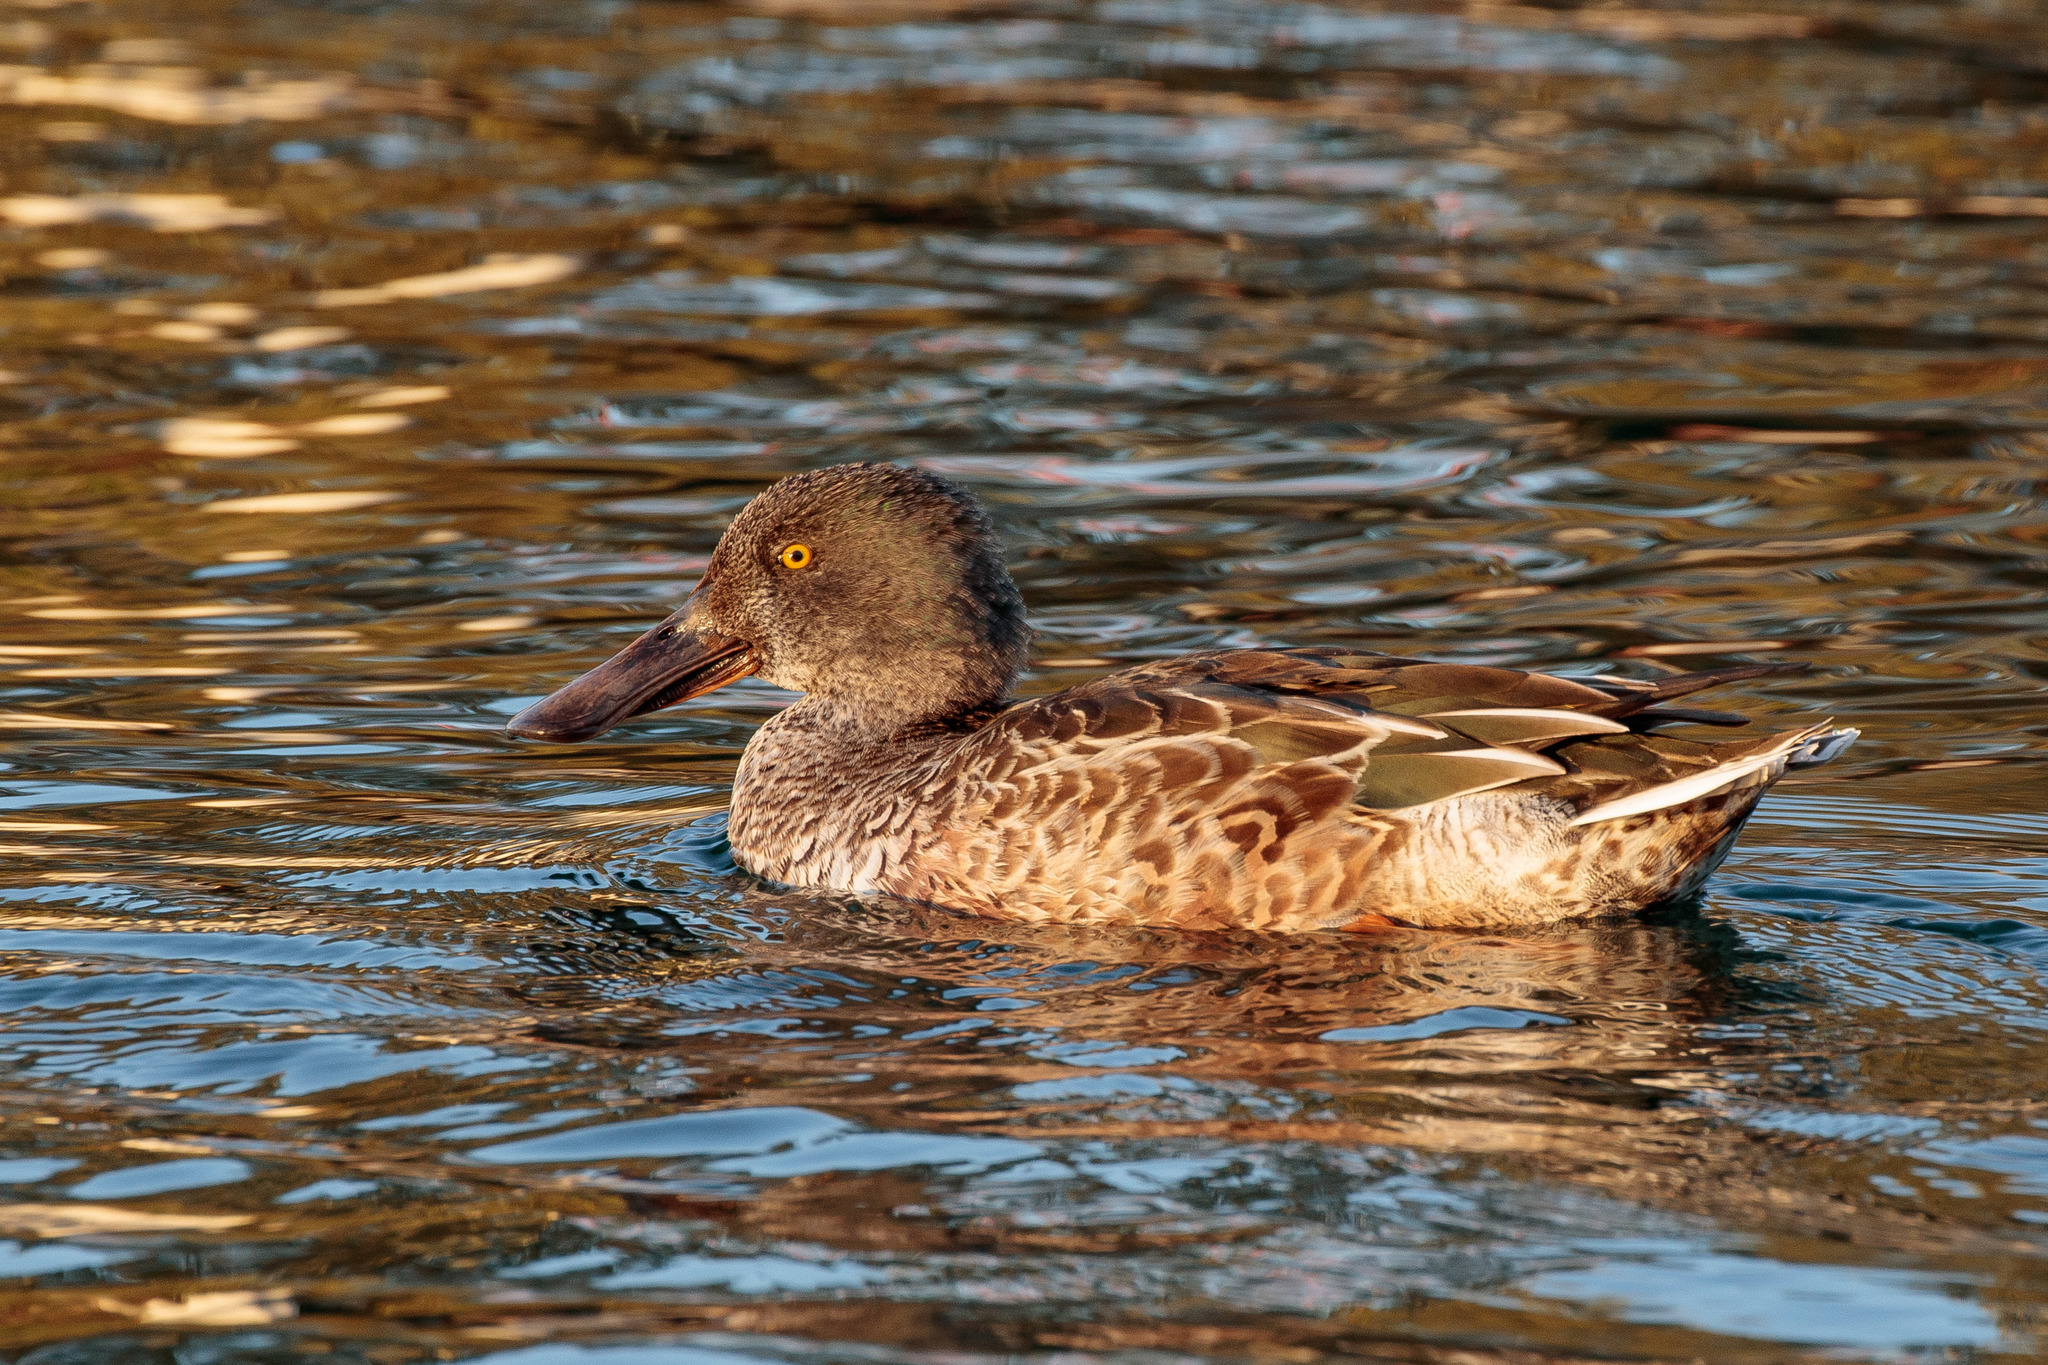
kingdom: Animalia
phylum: Chordata
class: Aves
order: Anseriformes
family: Anatidae
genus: Spatula
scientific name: Spatula clypeata
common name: Northern shoveler
